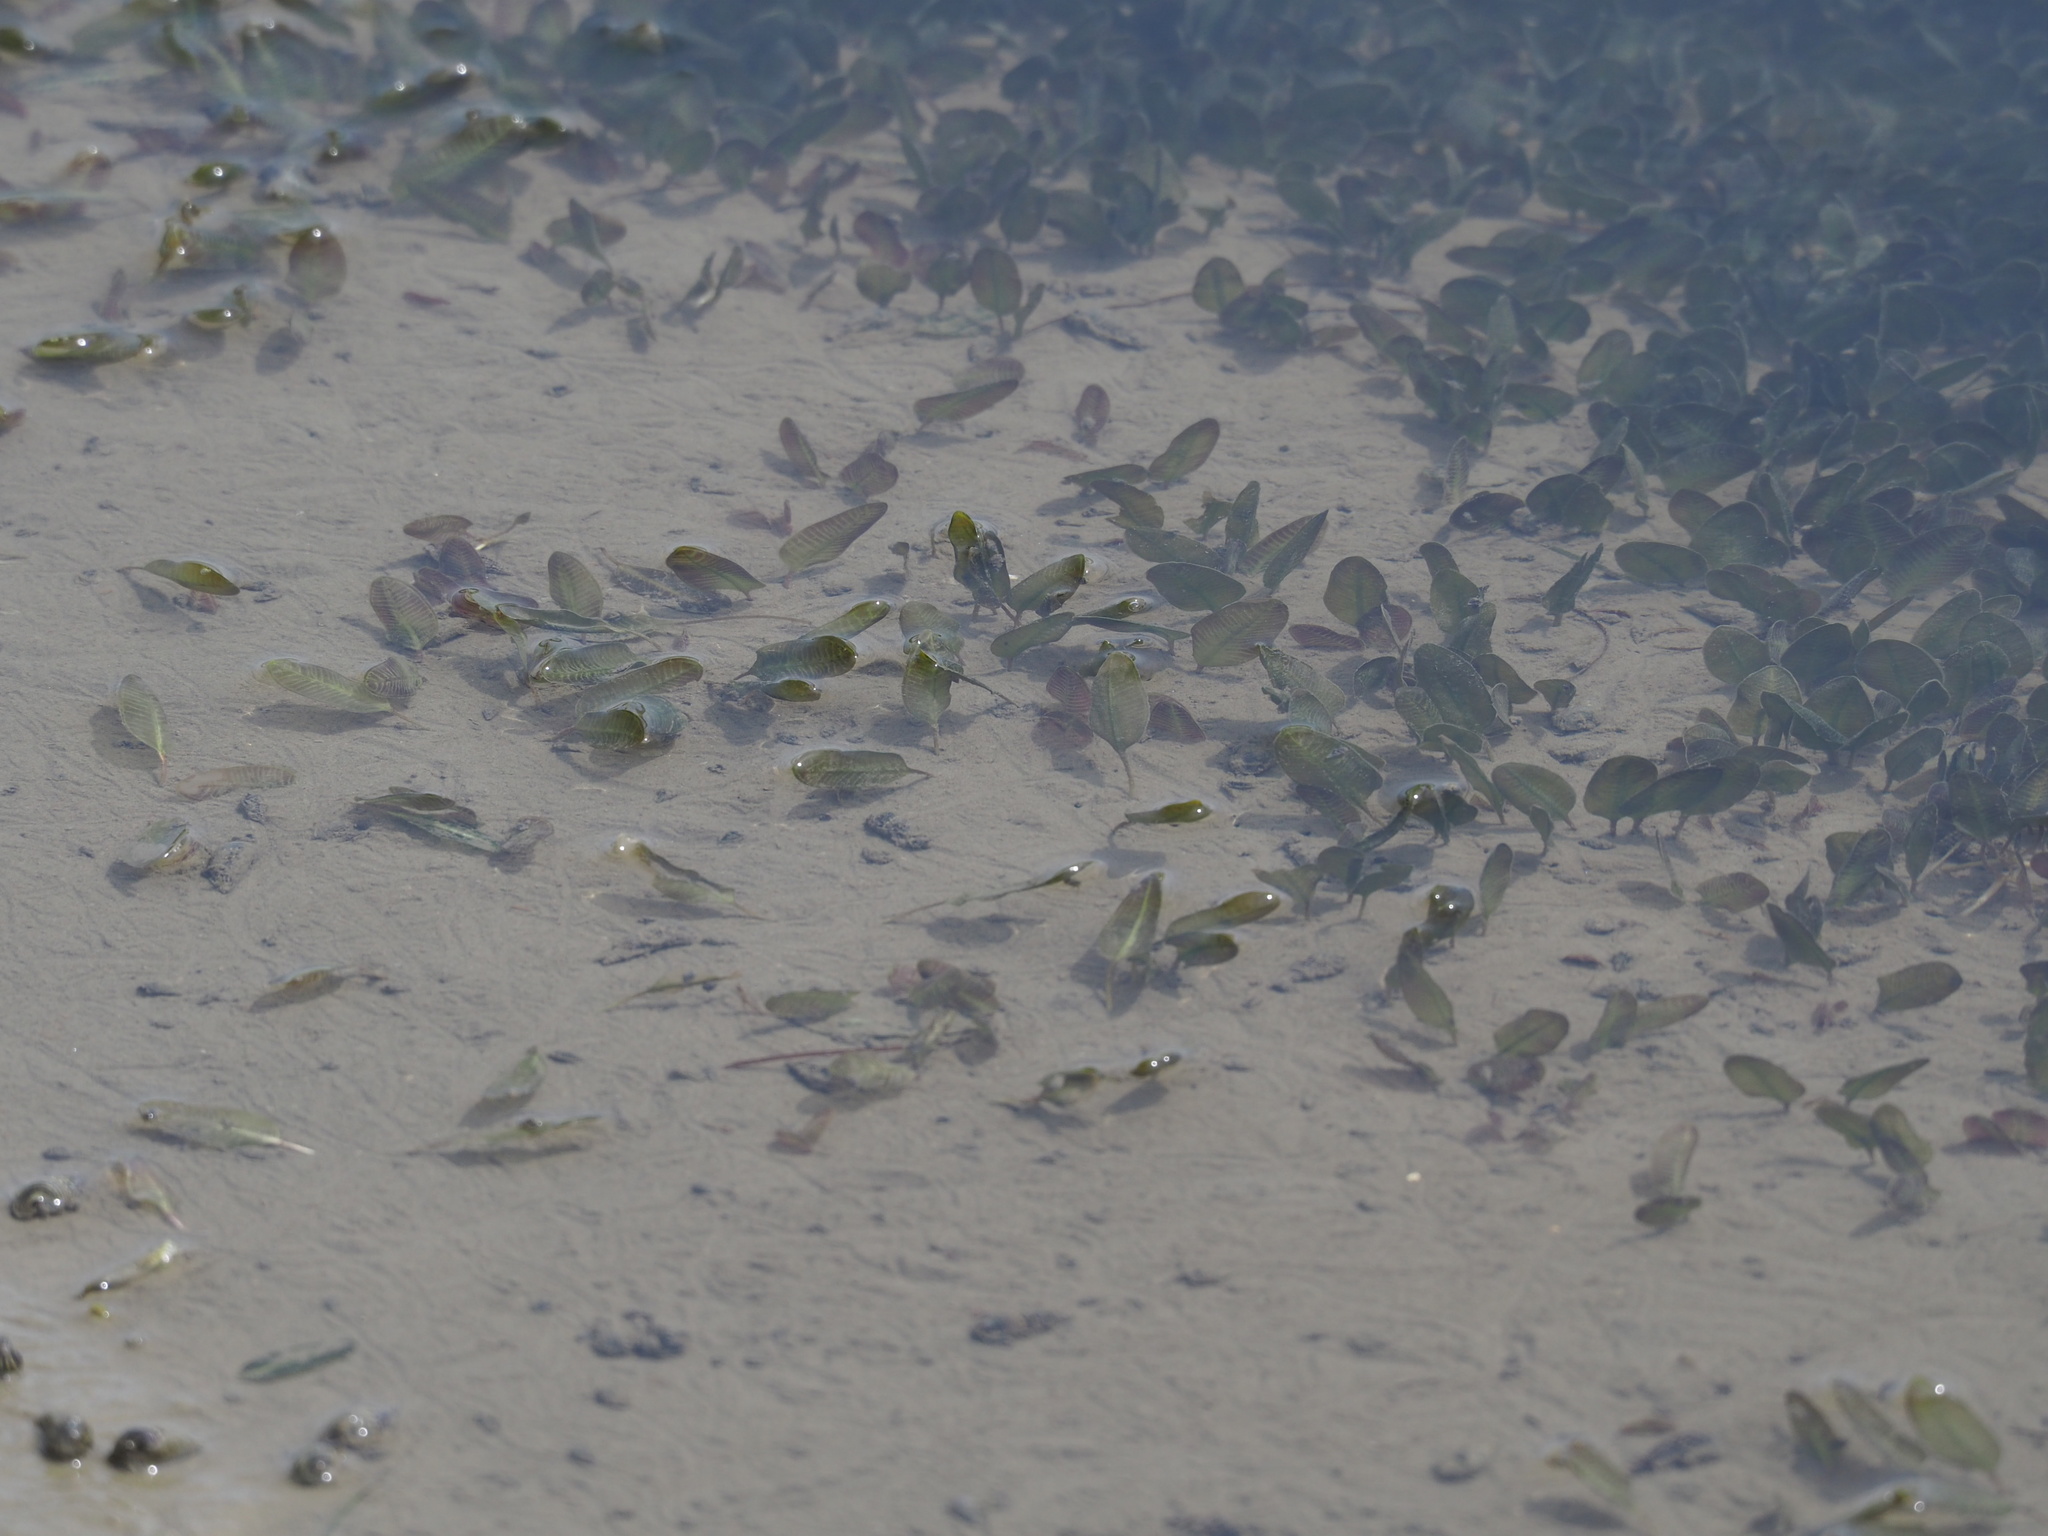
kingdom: Plantae
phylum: Tracheophyta
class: Liliopsida
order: Alismatales
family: Hydrocharitaceae
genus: Halophila
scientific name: Halophila ovalis
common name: Species code: ho
